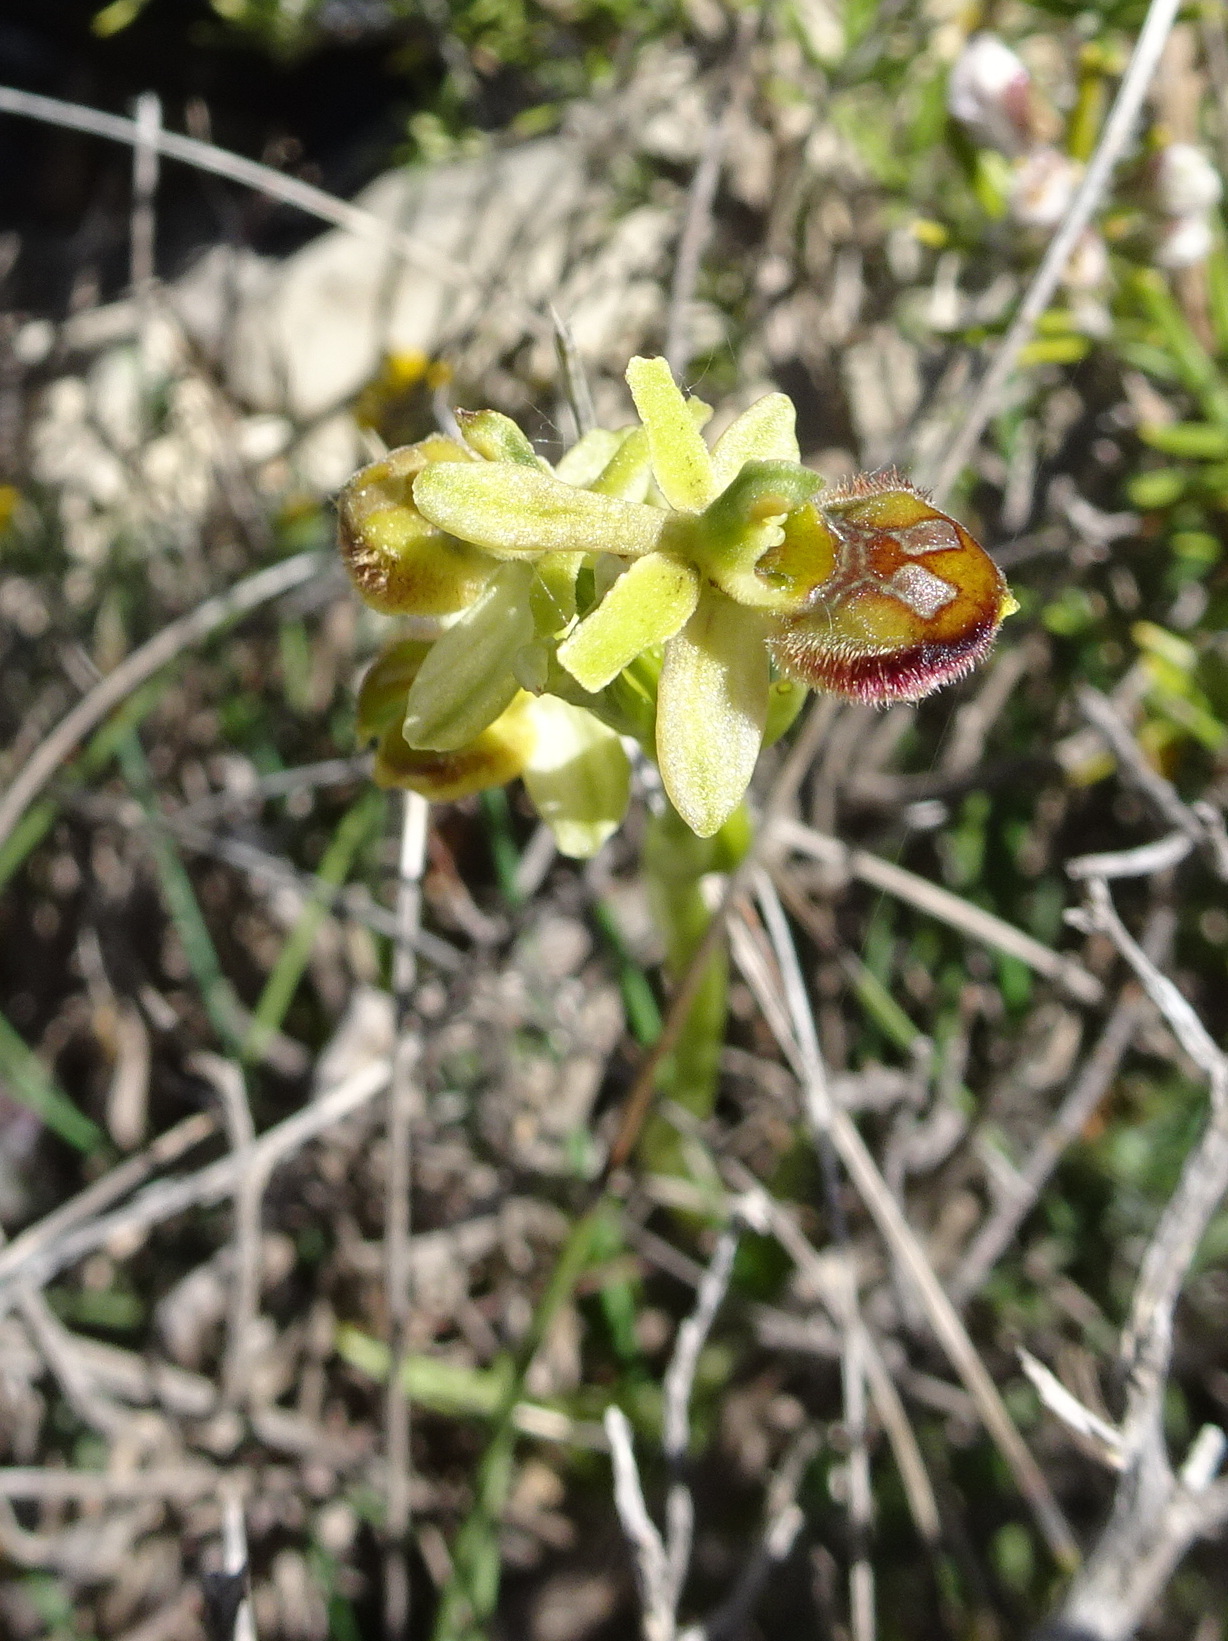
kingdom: Plantae
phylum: Tracheophyta
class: Liliopsida
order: Asparagales
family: Orchidaceae
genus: Ophrys
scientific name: Ophrys sphegodes
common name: Early spider-orchid
